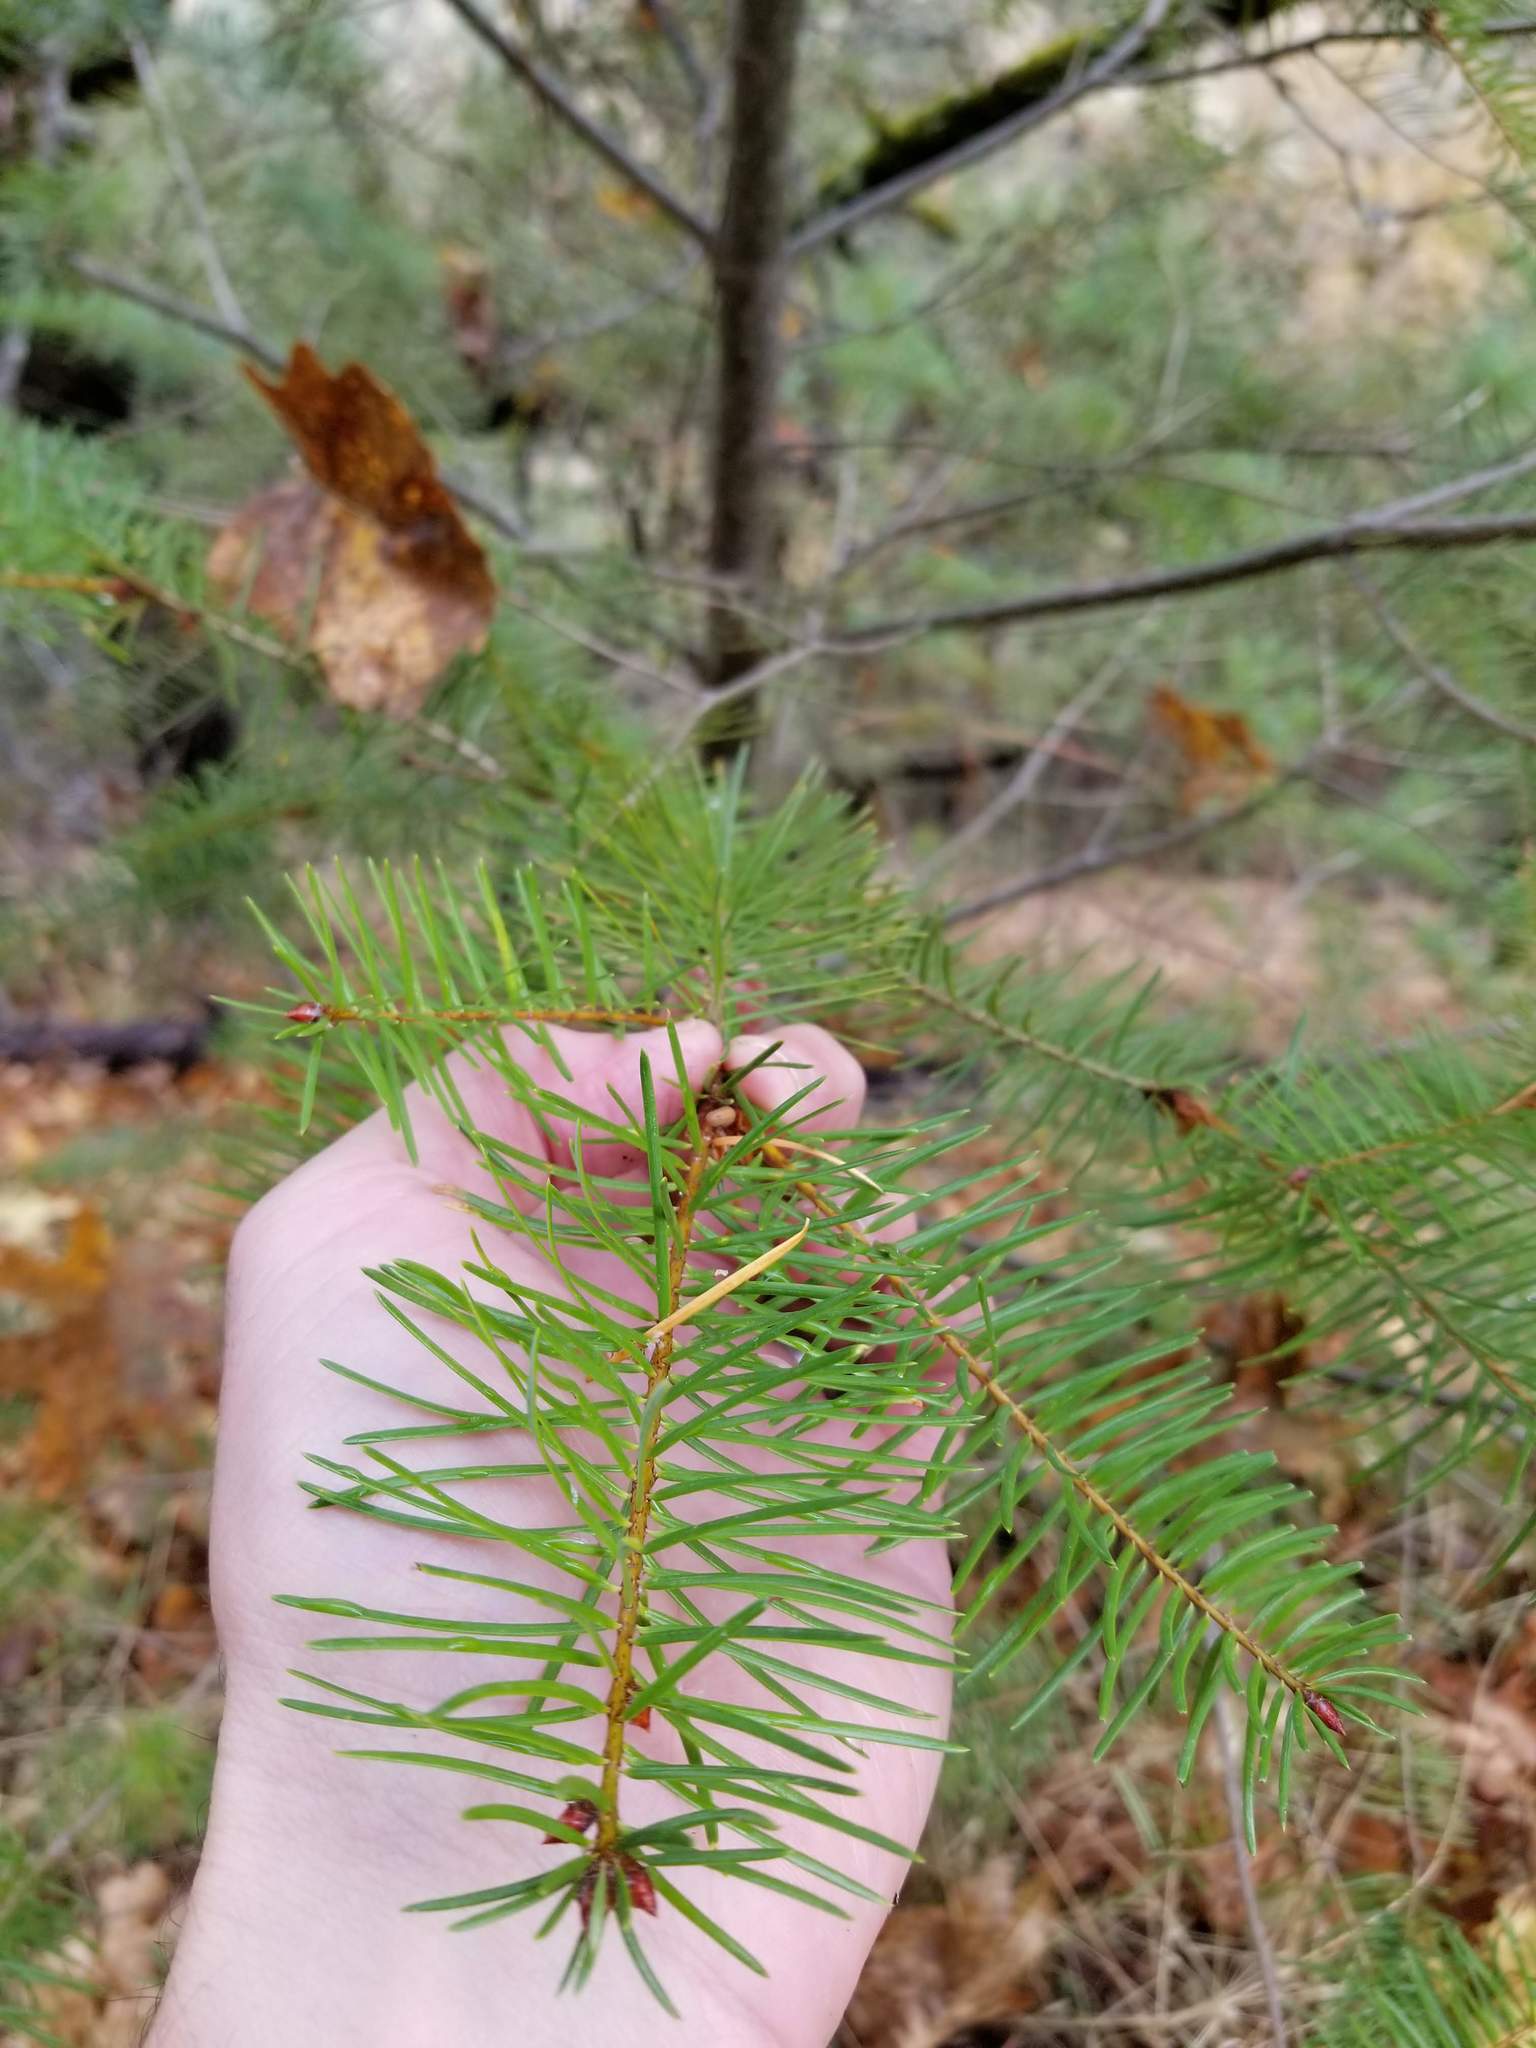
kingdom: Plantae
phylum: Tracheophyta
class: Pinopsida
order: Pinales
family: Pinaceae
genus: Pseudotsuga
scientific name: Pseudotsuga menziesii
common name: Douglas fir
